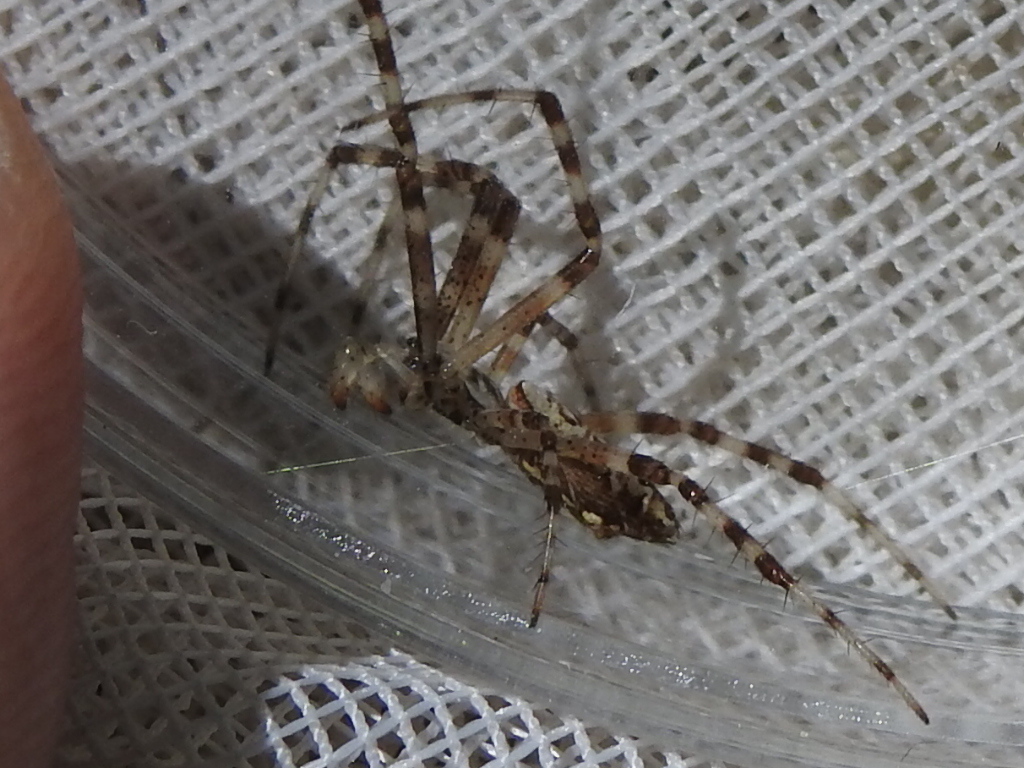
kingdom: Animalia
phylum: Arthropoda
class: Arachnida
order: Araneae
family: Araneidae
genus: Argiope
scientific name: Argiope aurantia
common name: Orb weavers
